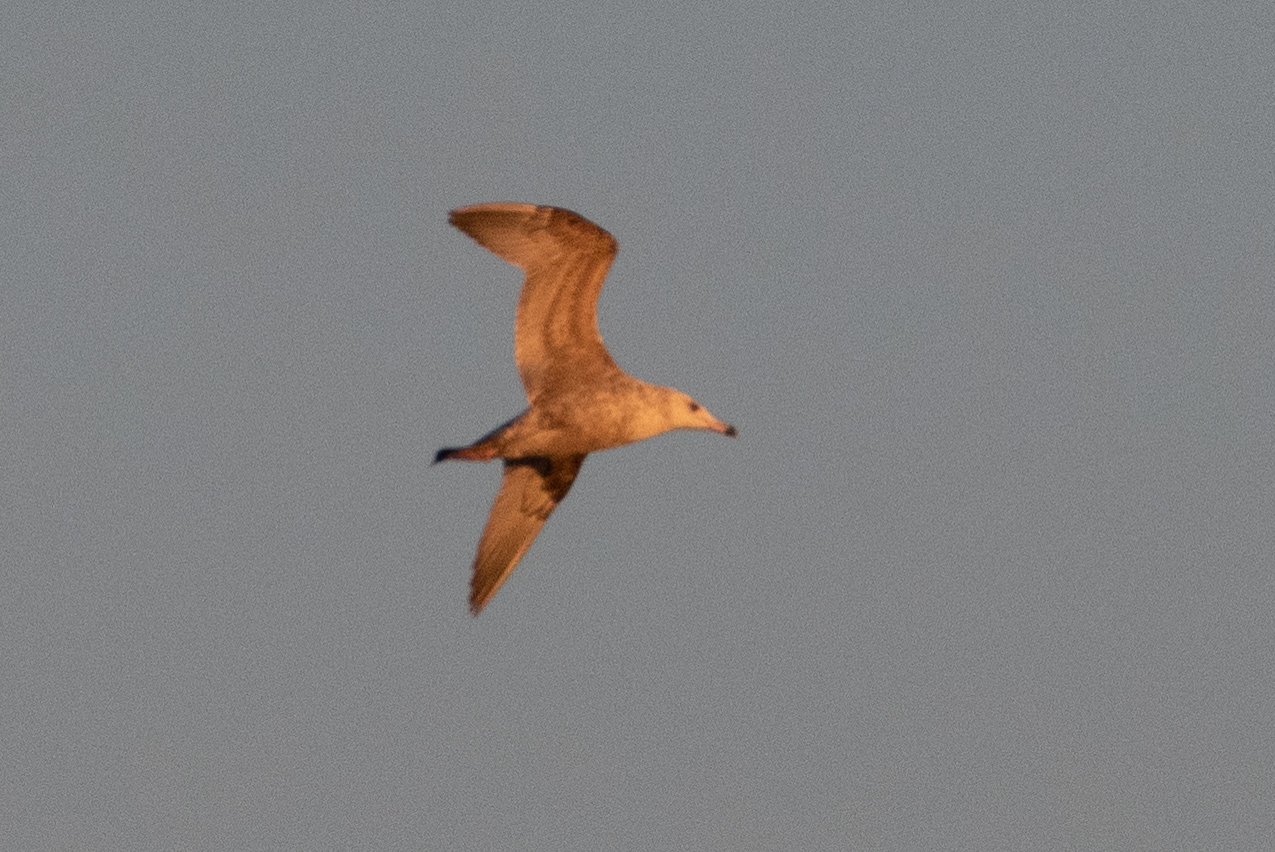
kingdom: Animalia
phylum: Chordata
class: Aves
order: Charadriiformes
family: Laridae
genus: Larus
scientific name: Larus argentatus
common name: Herring gull
